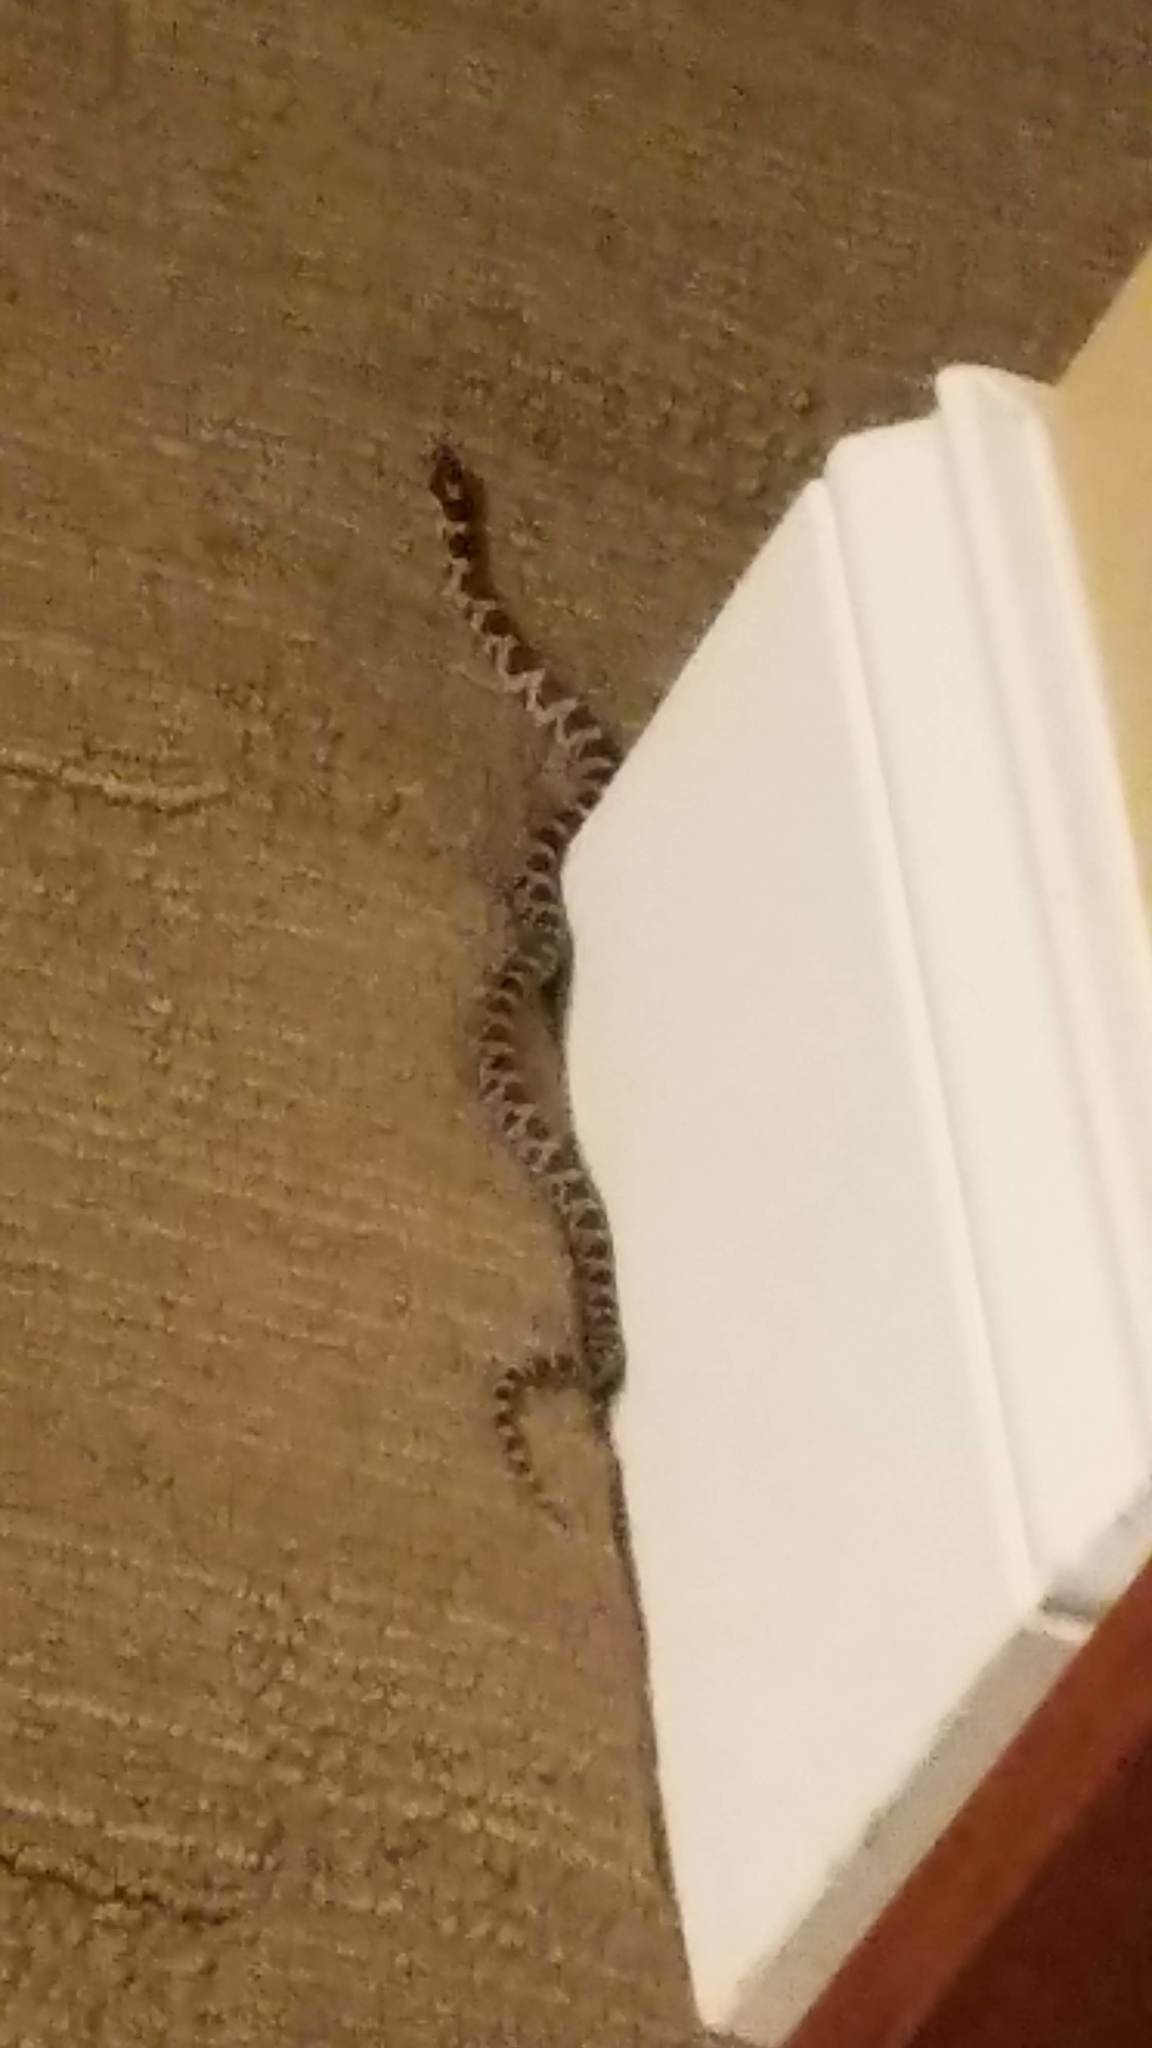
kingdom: Animalia
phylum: Chordata
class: Squamata
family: Colubridae
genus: Lampropeltis
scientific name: Lampropeltis triangulum
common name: Eastern milksnake
